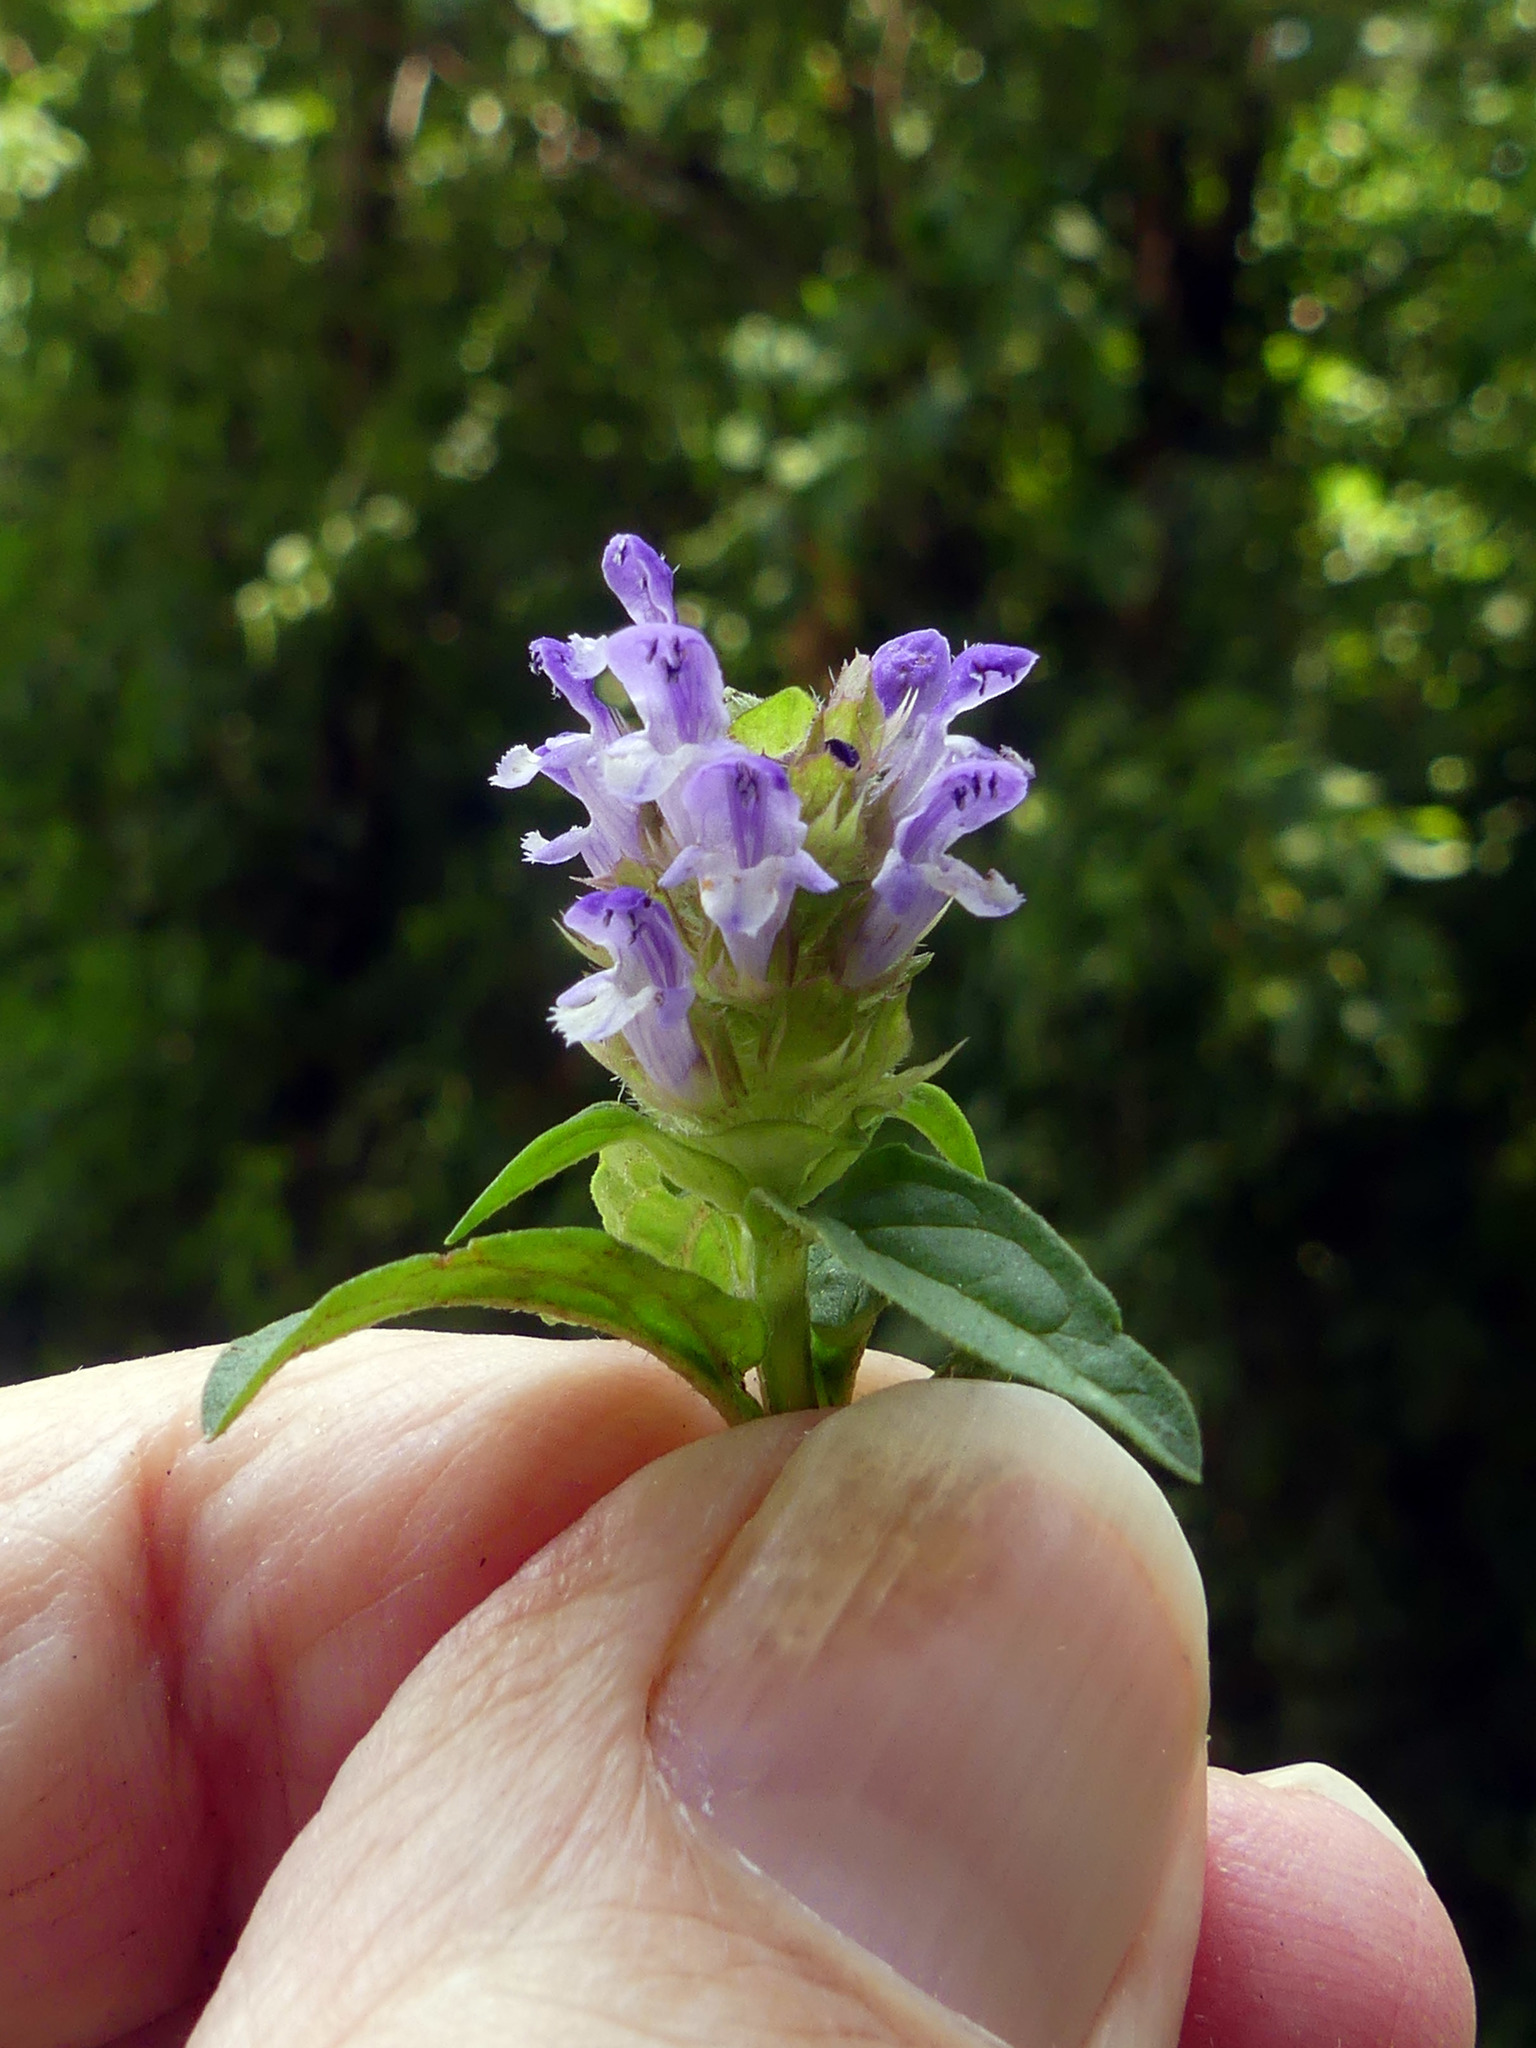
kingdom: Plantae
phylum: Tracheophyta
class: Magnoliopsida
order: Lamiales
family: Lamiaceae
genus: Prunella
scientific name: Prunella vulgaris
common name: Heal-all
